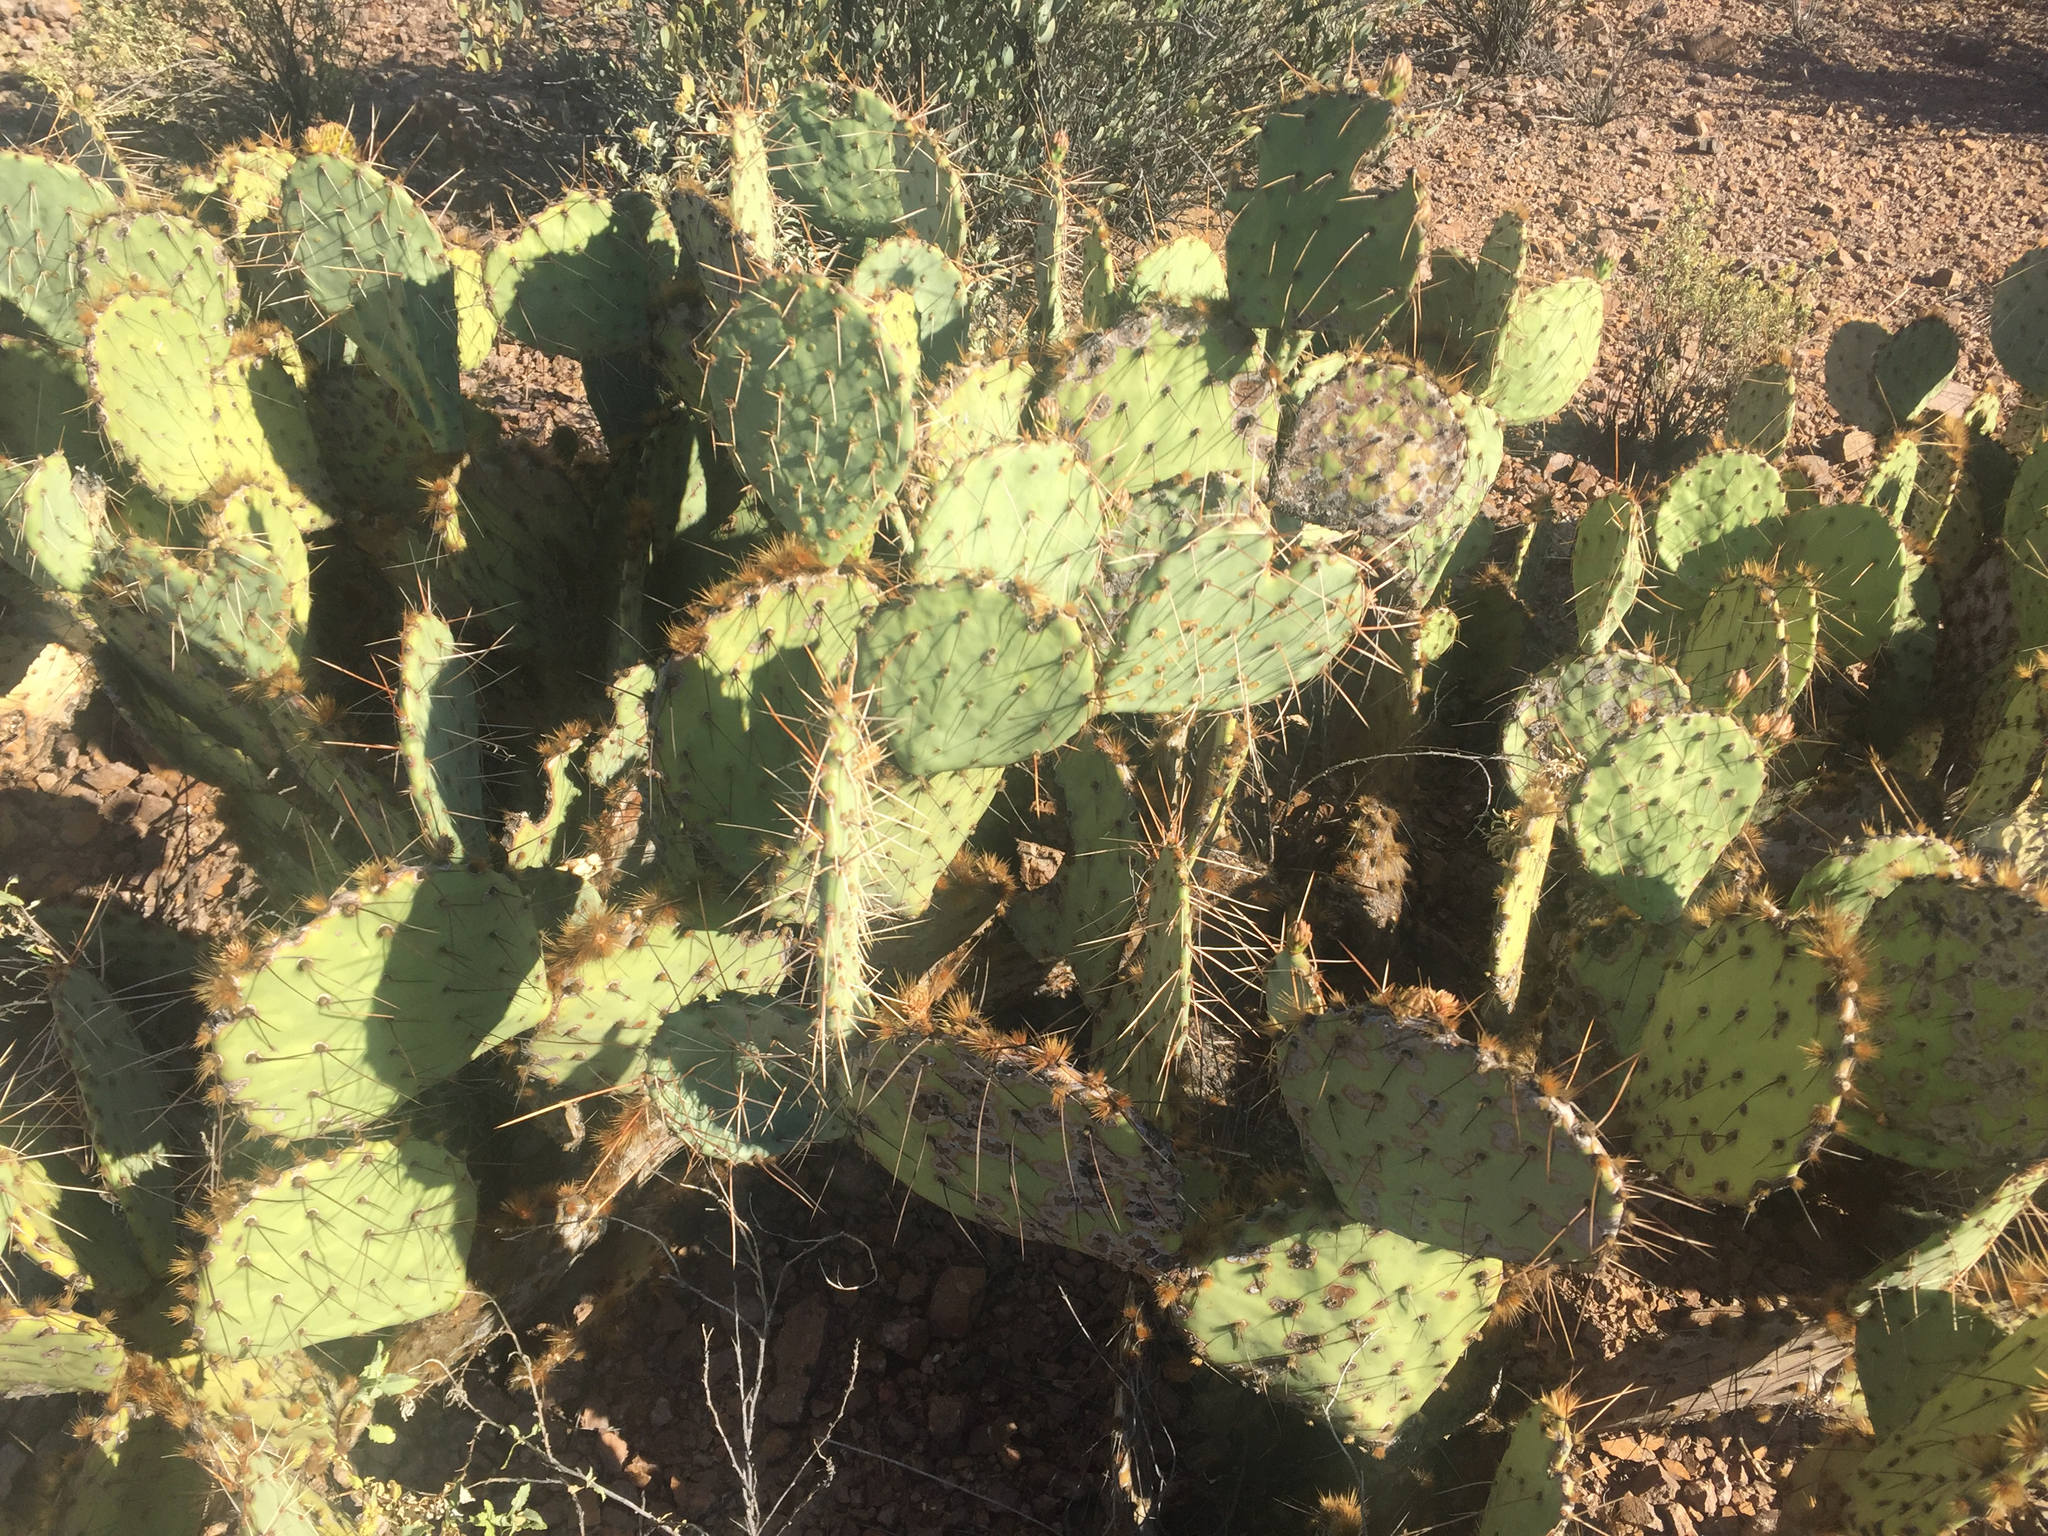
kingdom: Plantae
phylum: Tracheophyta
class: Magnoliopsida
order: Caryophyllales
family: Cactaceae
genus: Opuntia
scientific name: Opuntia engelmannii
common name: Cactus-apple
